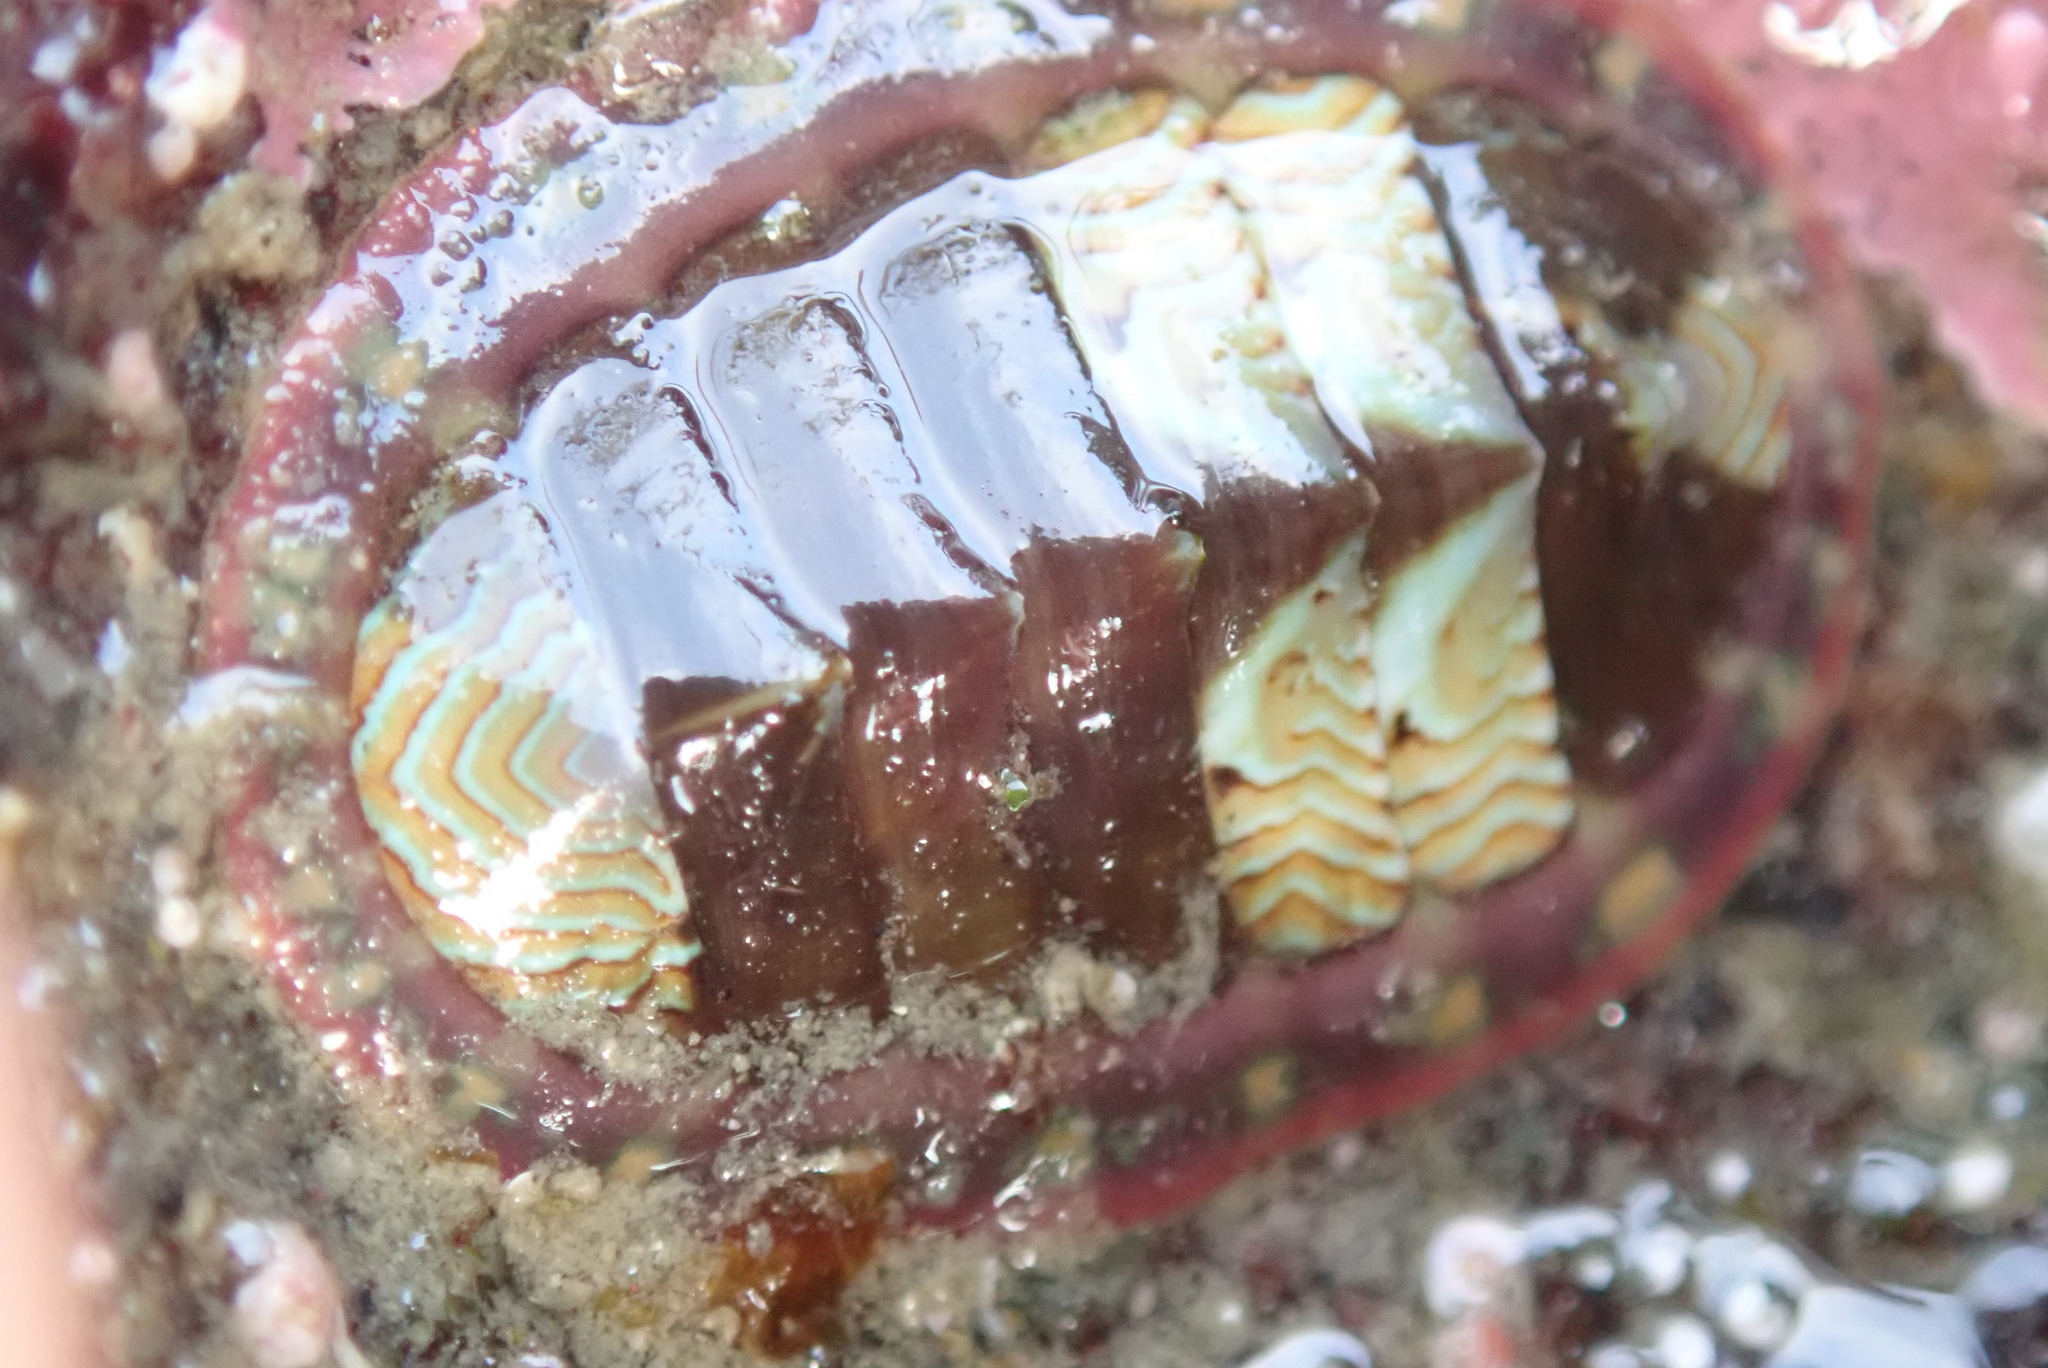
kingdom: Animalia
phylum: Mollusca
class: Polyplacophora
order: Chitonida
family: Tonicellidae
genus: Tonicella
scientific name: Tonicella lineata
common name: Lined chiton
